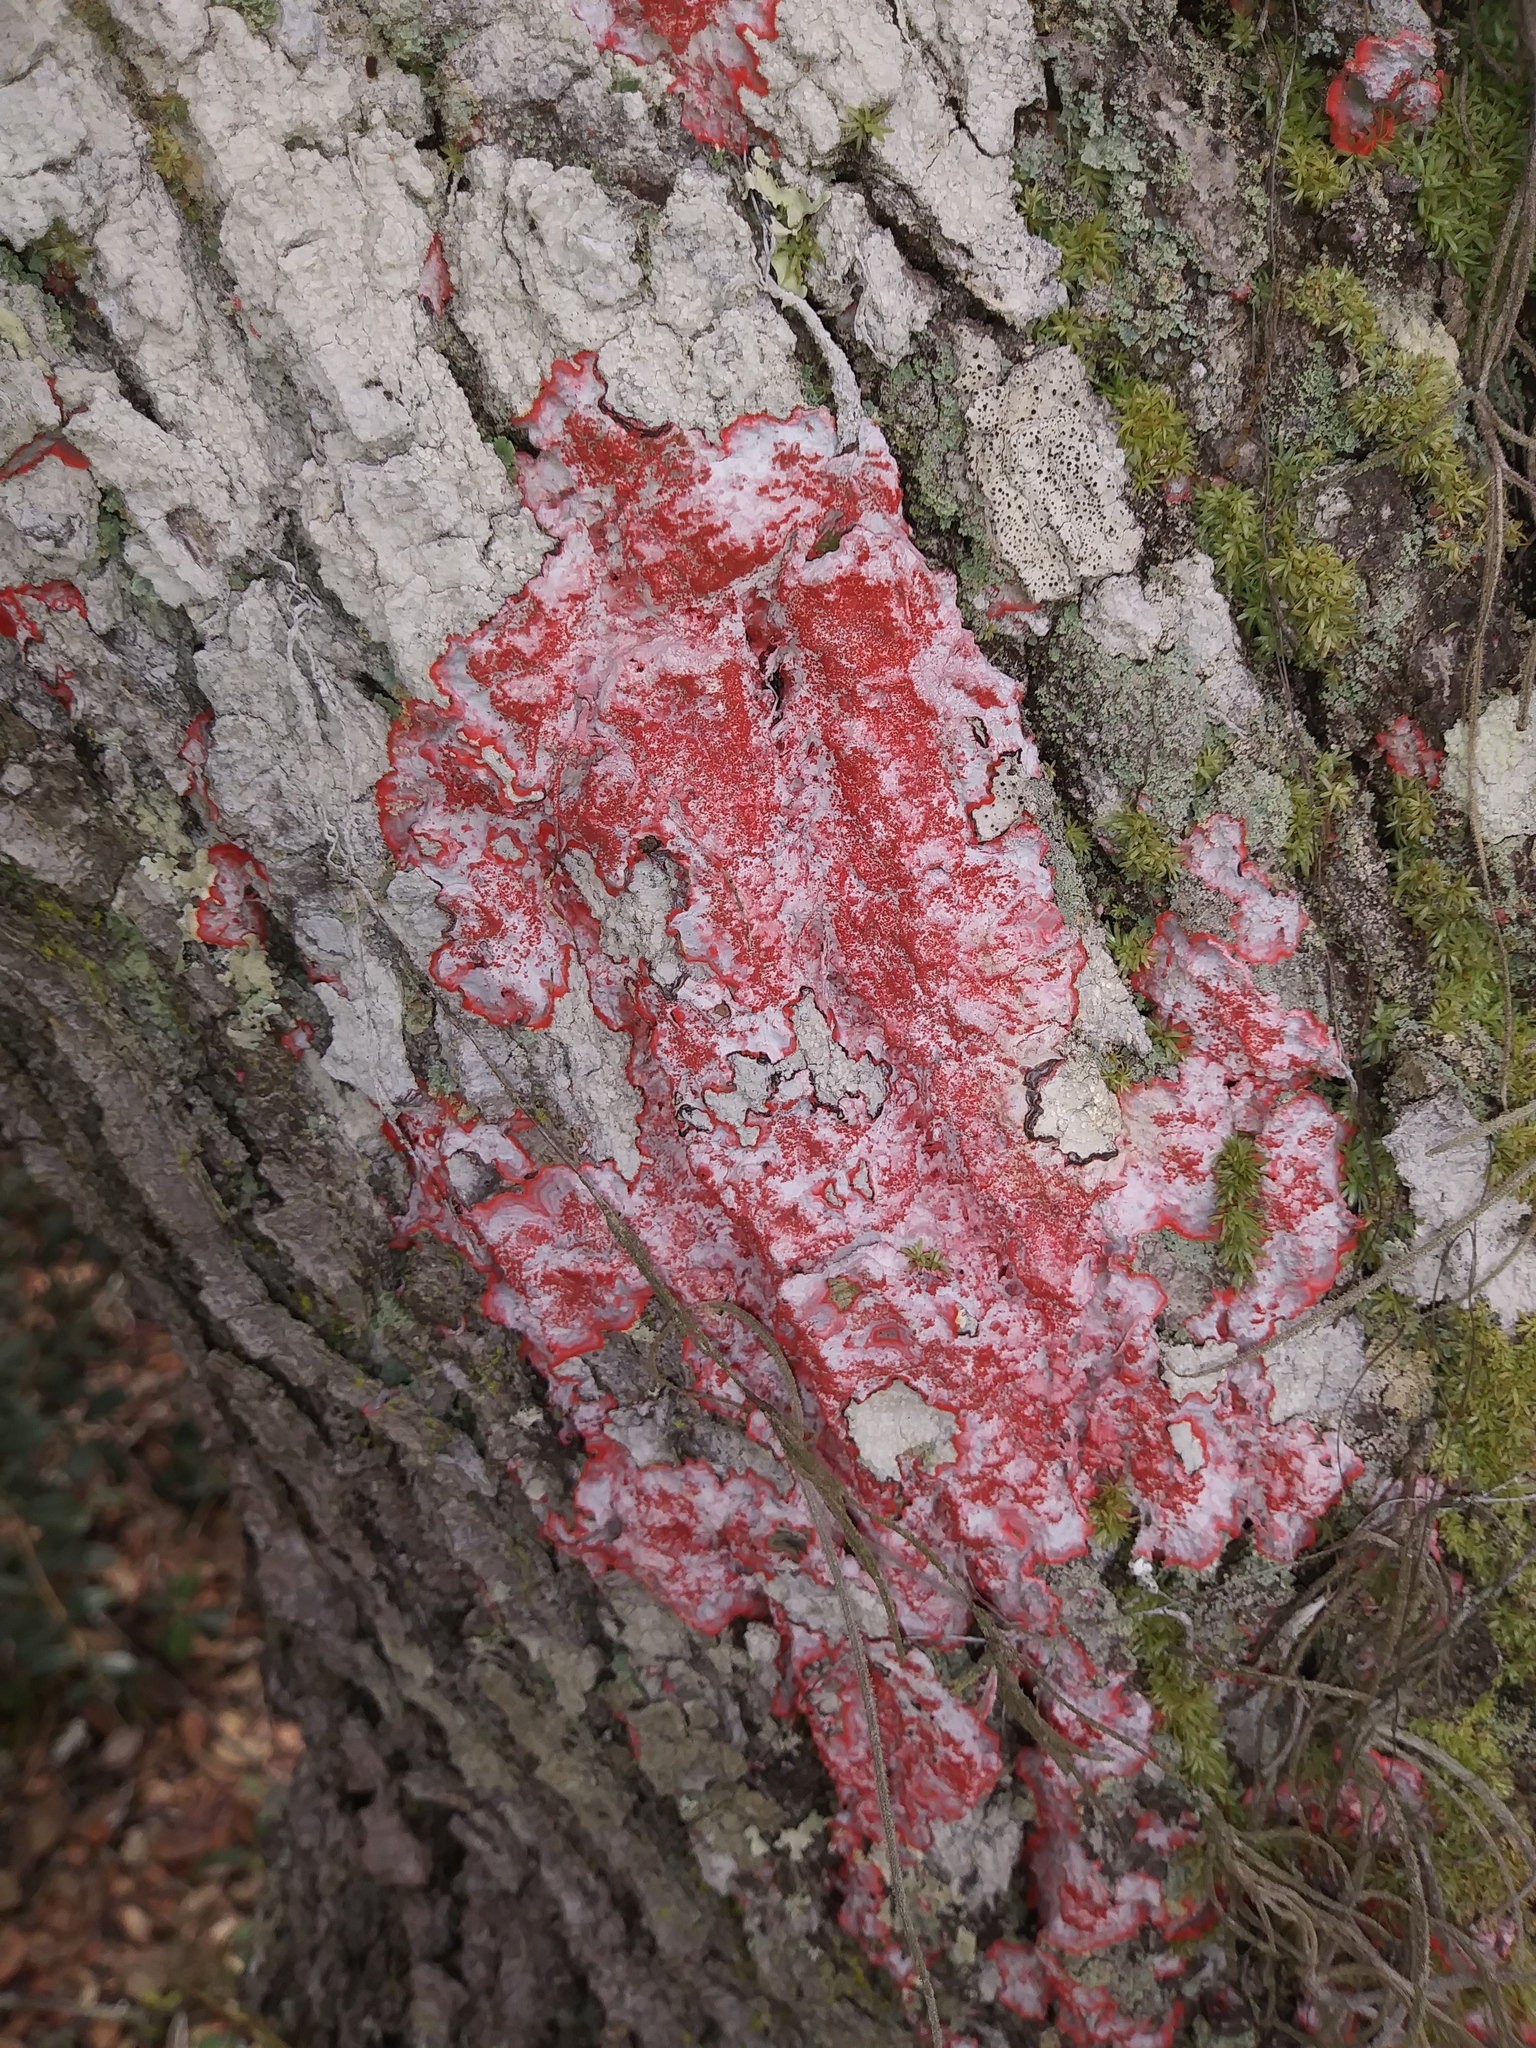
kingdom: Fungi
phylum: Ascomycota
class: Arthoniomycetes
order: Arthoniales
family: Arthoniaceae
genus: Herpothallon
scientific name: Herpothallon rubrocinctum
